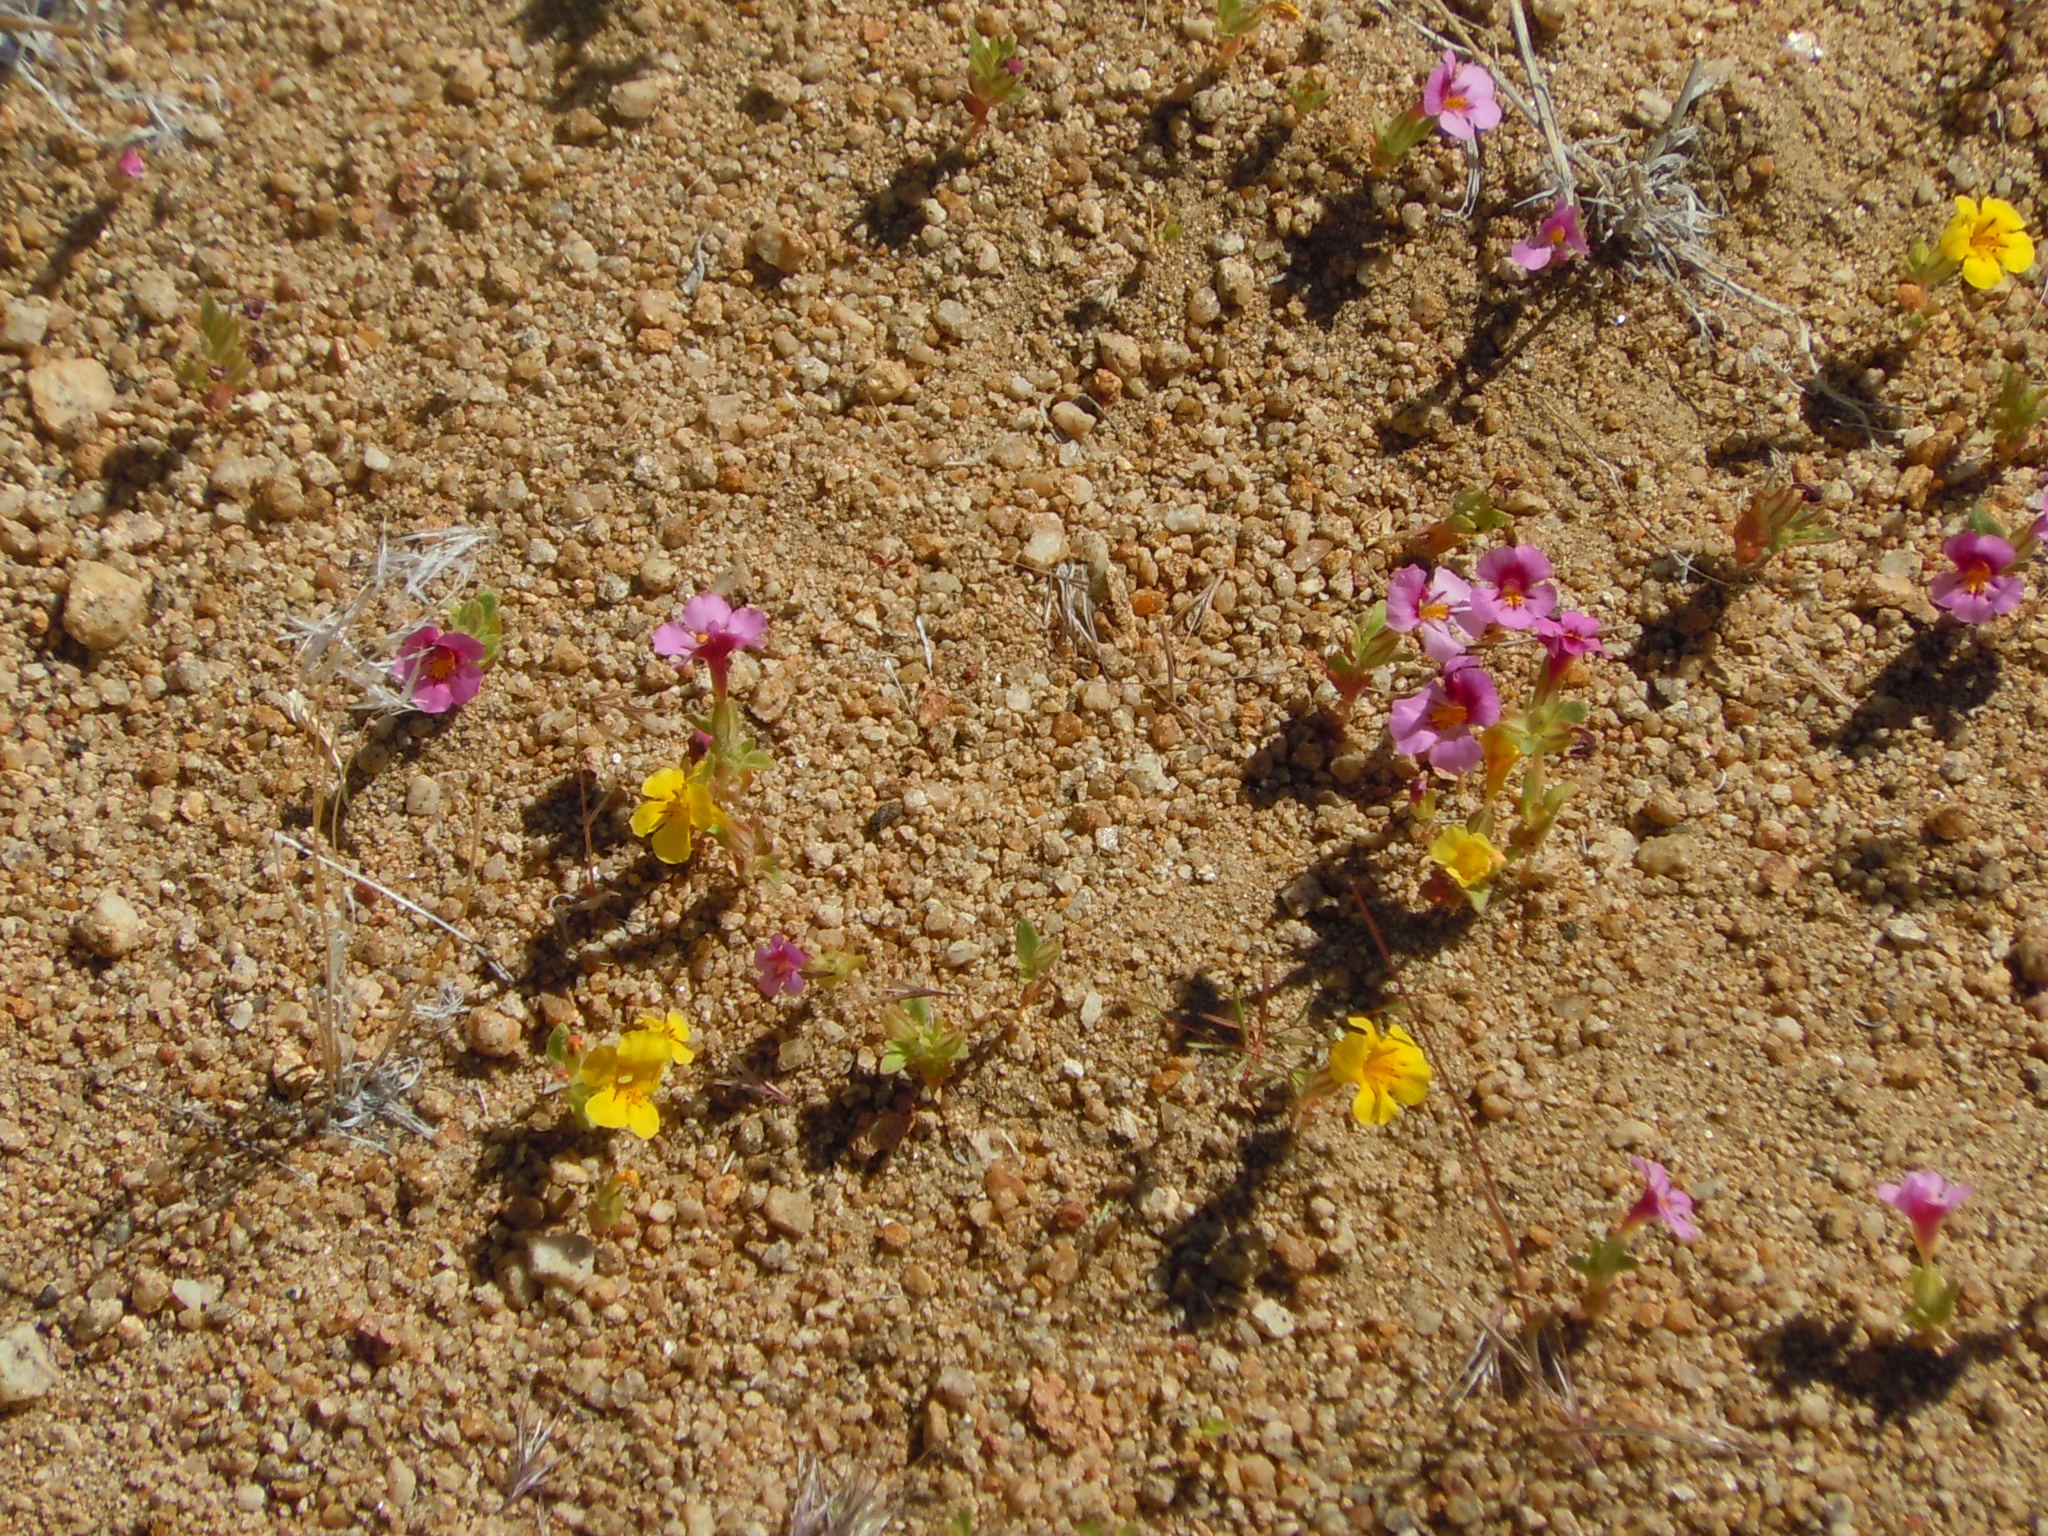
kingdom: Plantae
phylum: Tracheophyta
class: Magnoliopsida
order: Lamiales
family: Phrymaceae
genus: Diplacus
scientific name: Diplacus mephiticus
